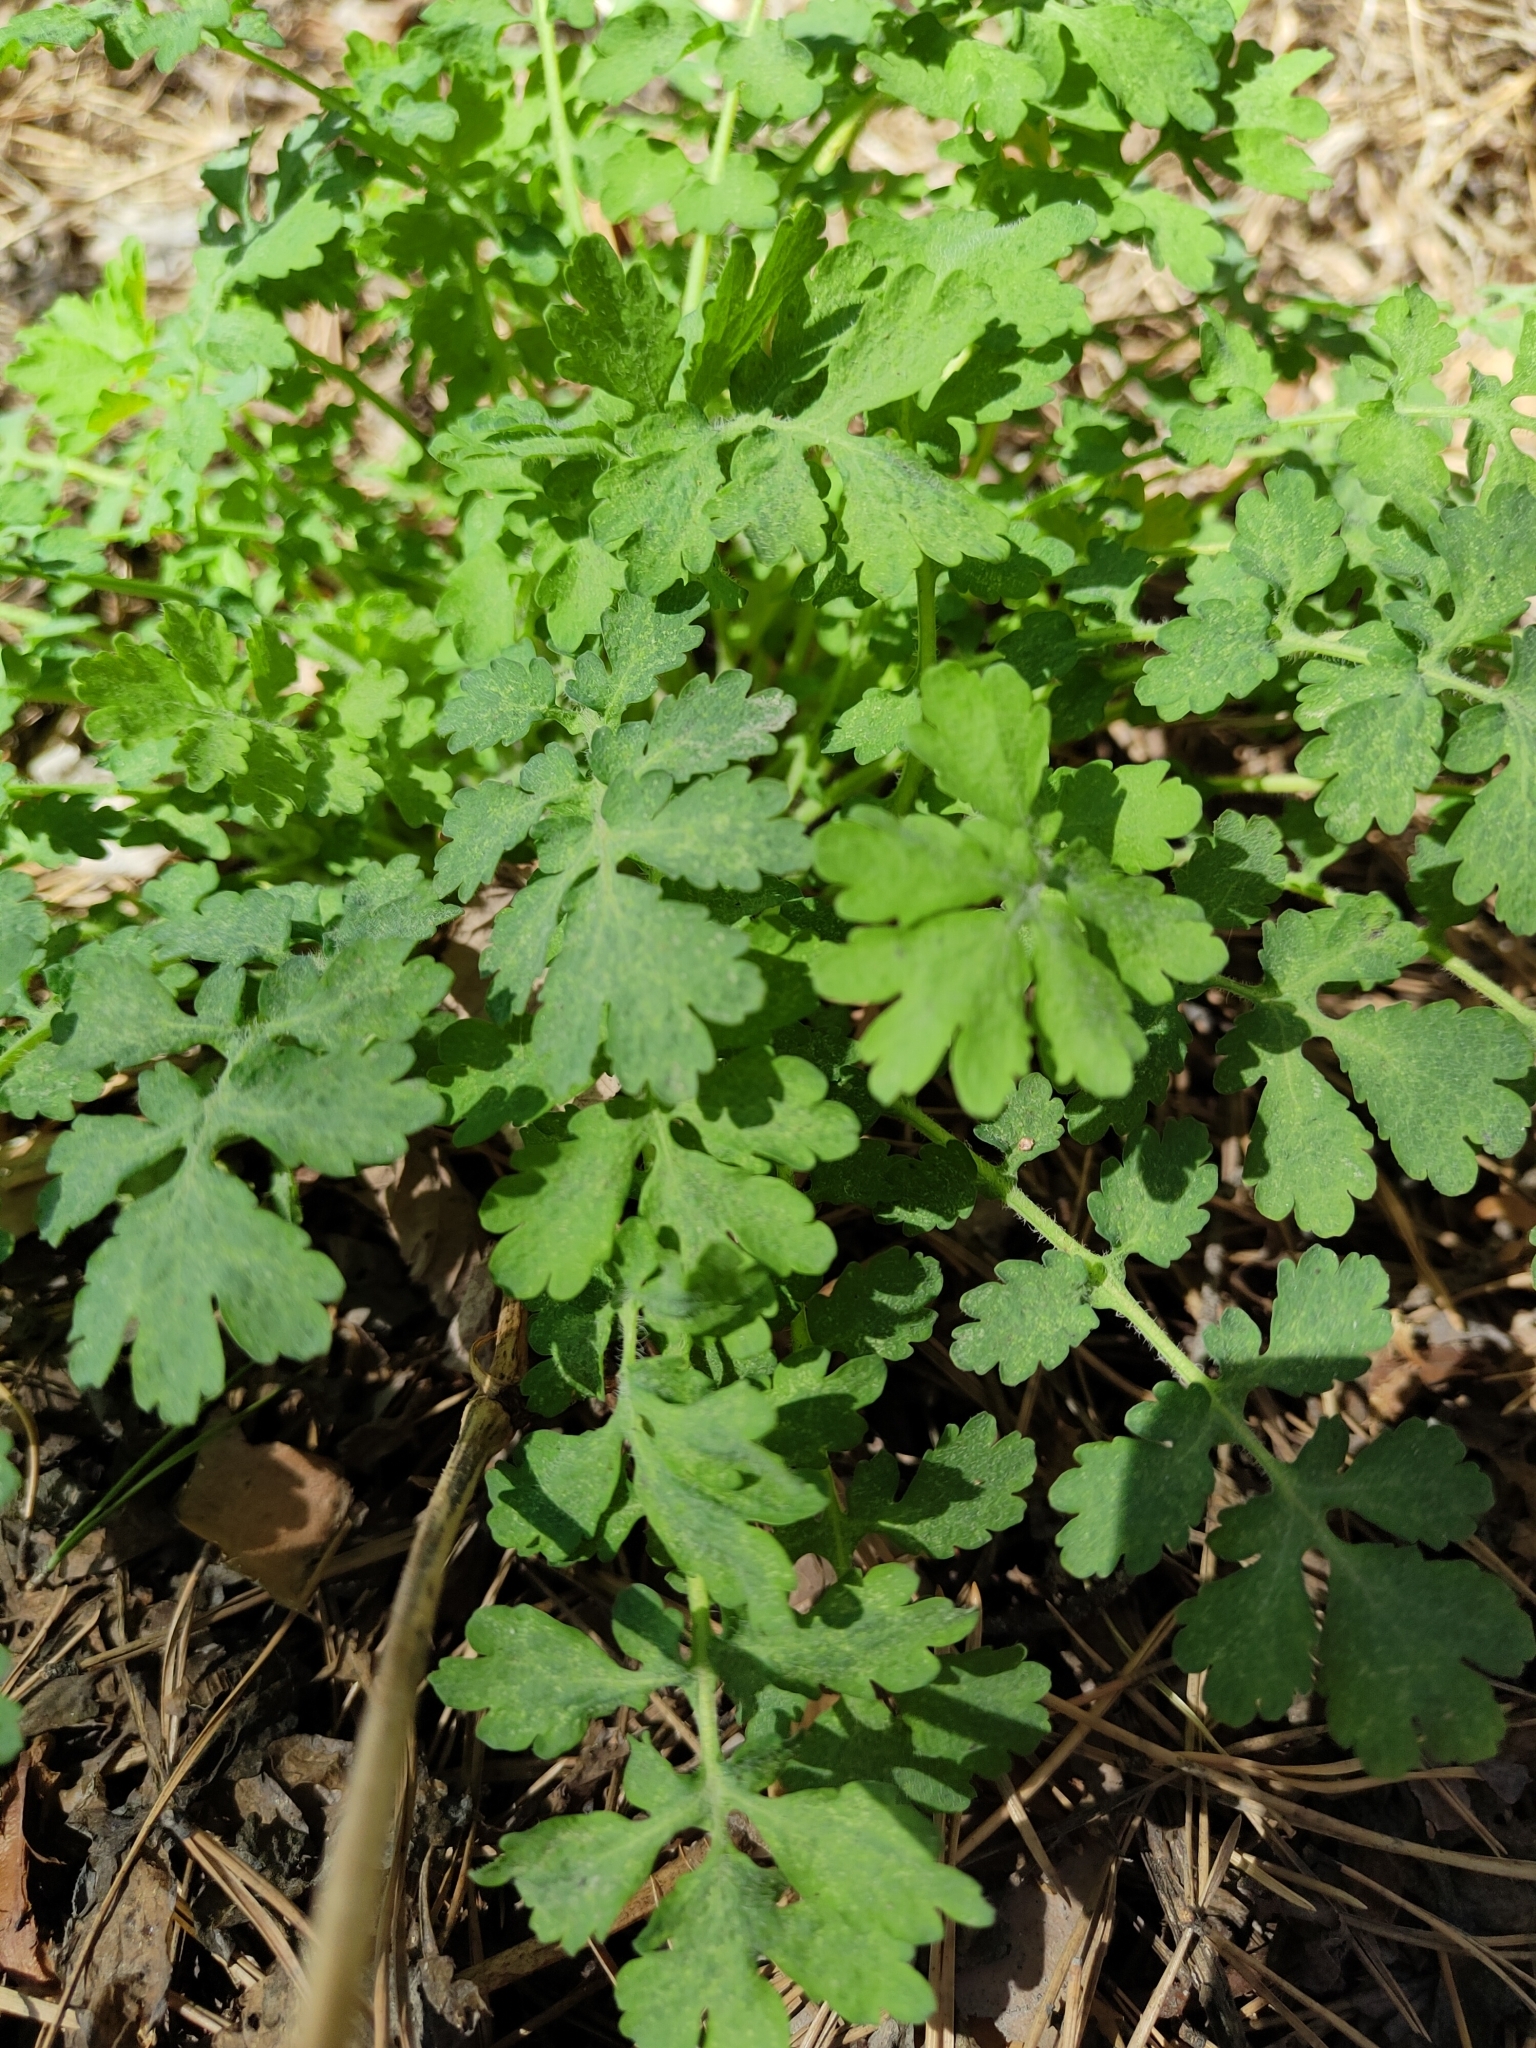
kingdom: Plantae
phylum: Tracheophyta
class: Magnoliopsida
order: Ranunculales
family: Papaveraceae
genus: Chelidonium
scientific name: Chelidonium majus
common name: Greater celandine
